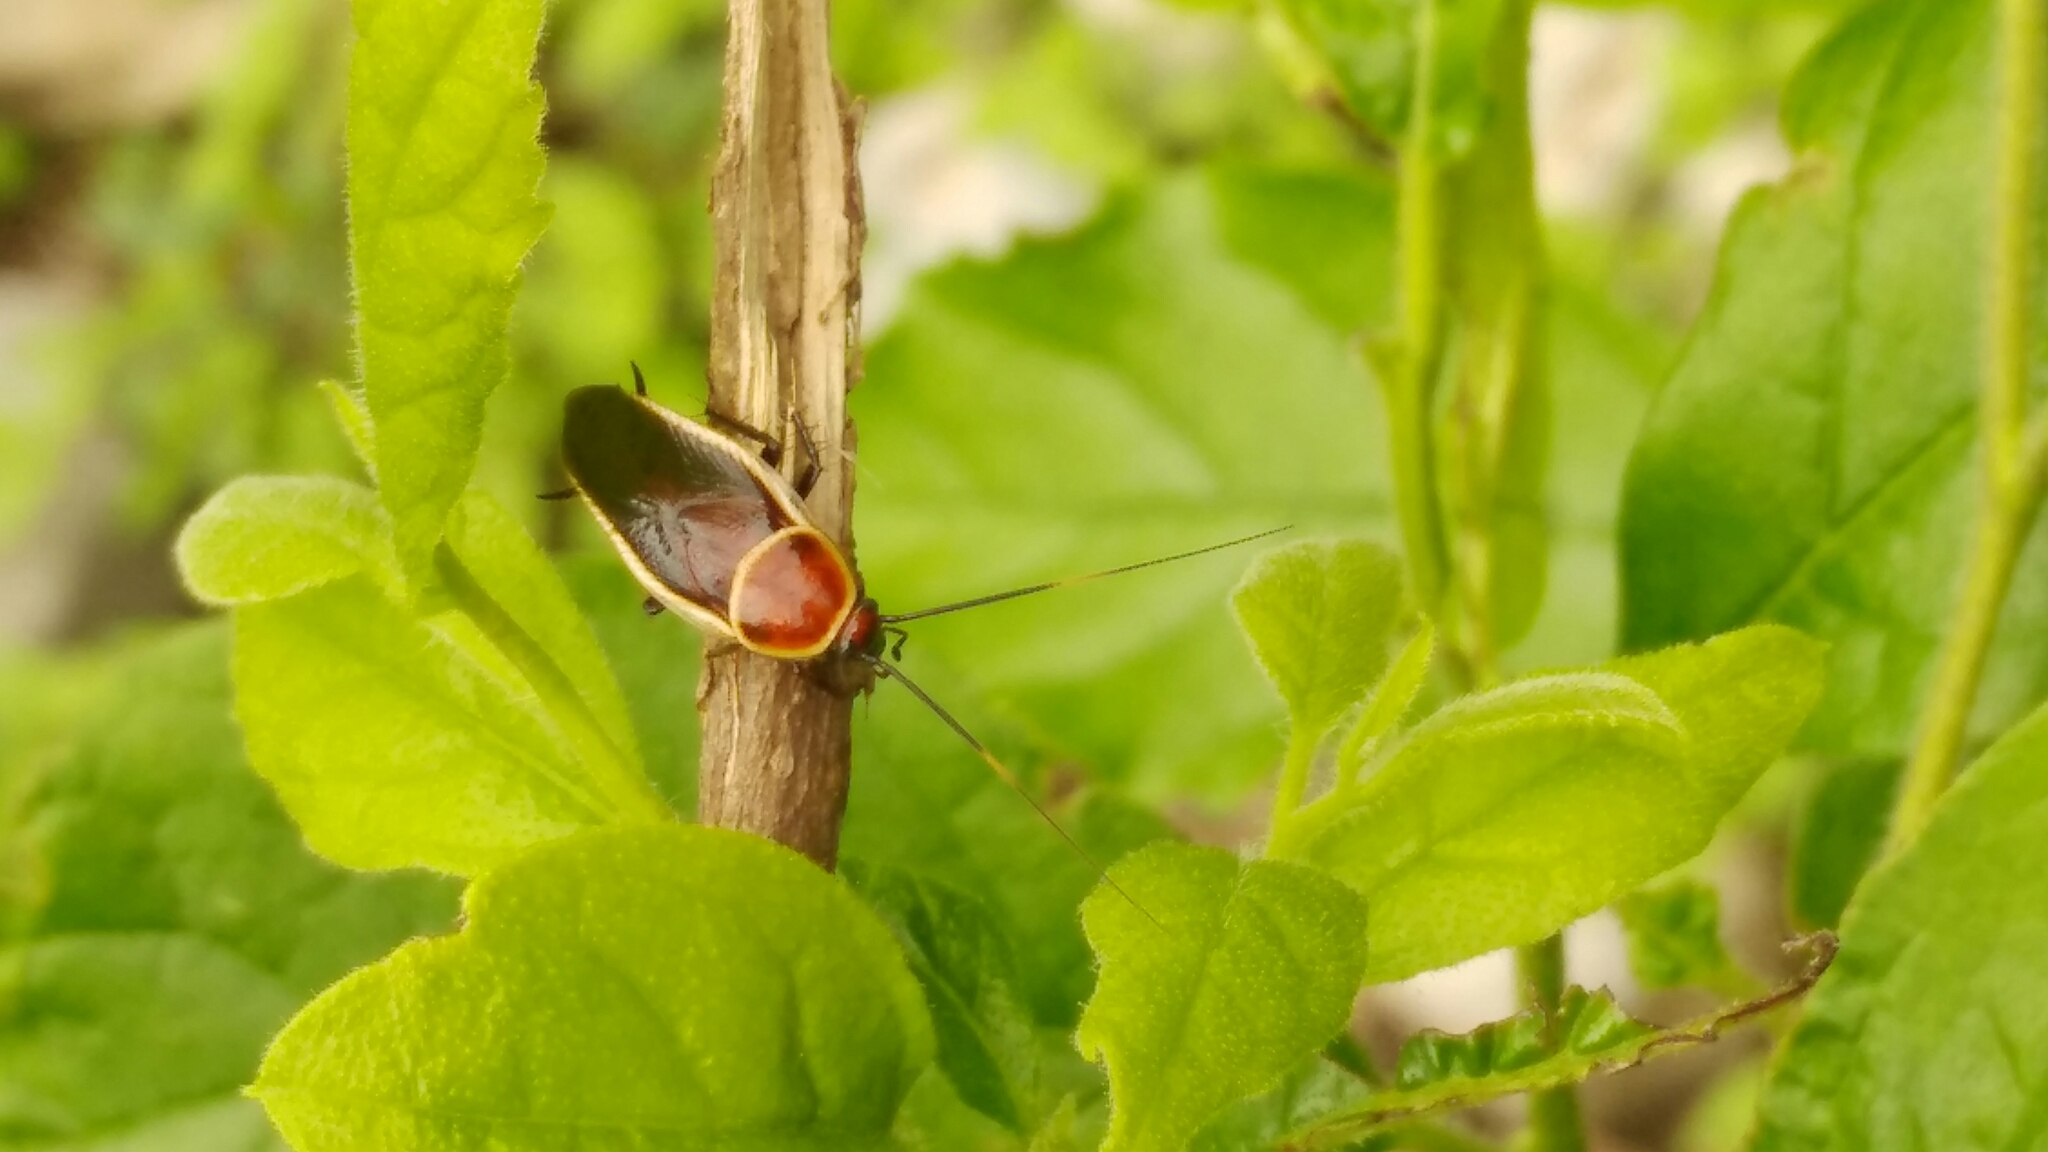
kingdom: Animalia
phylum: Arthropoda
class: Insecta
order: Blattodea
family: Ectobiidae
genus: Pseudomops
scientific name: Pseudomops septentrionalis
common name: Pale-bordered field cockroach
